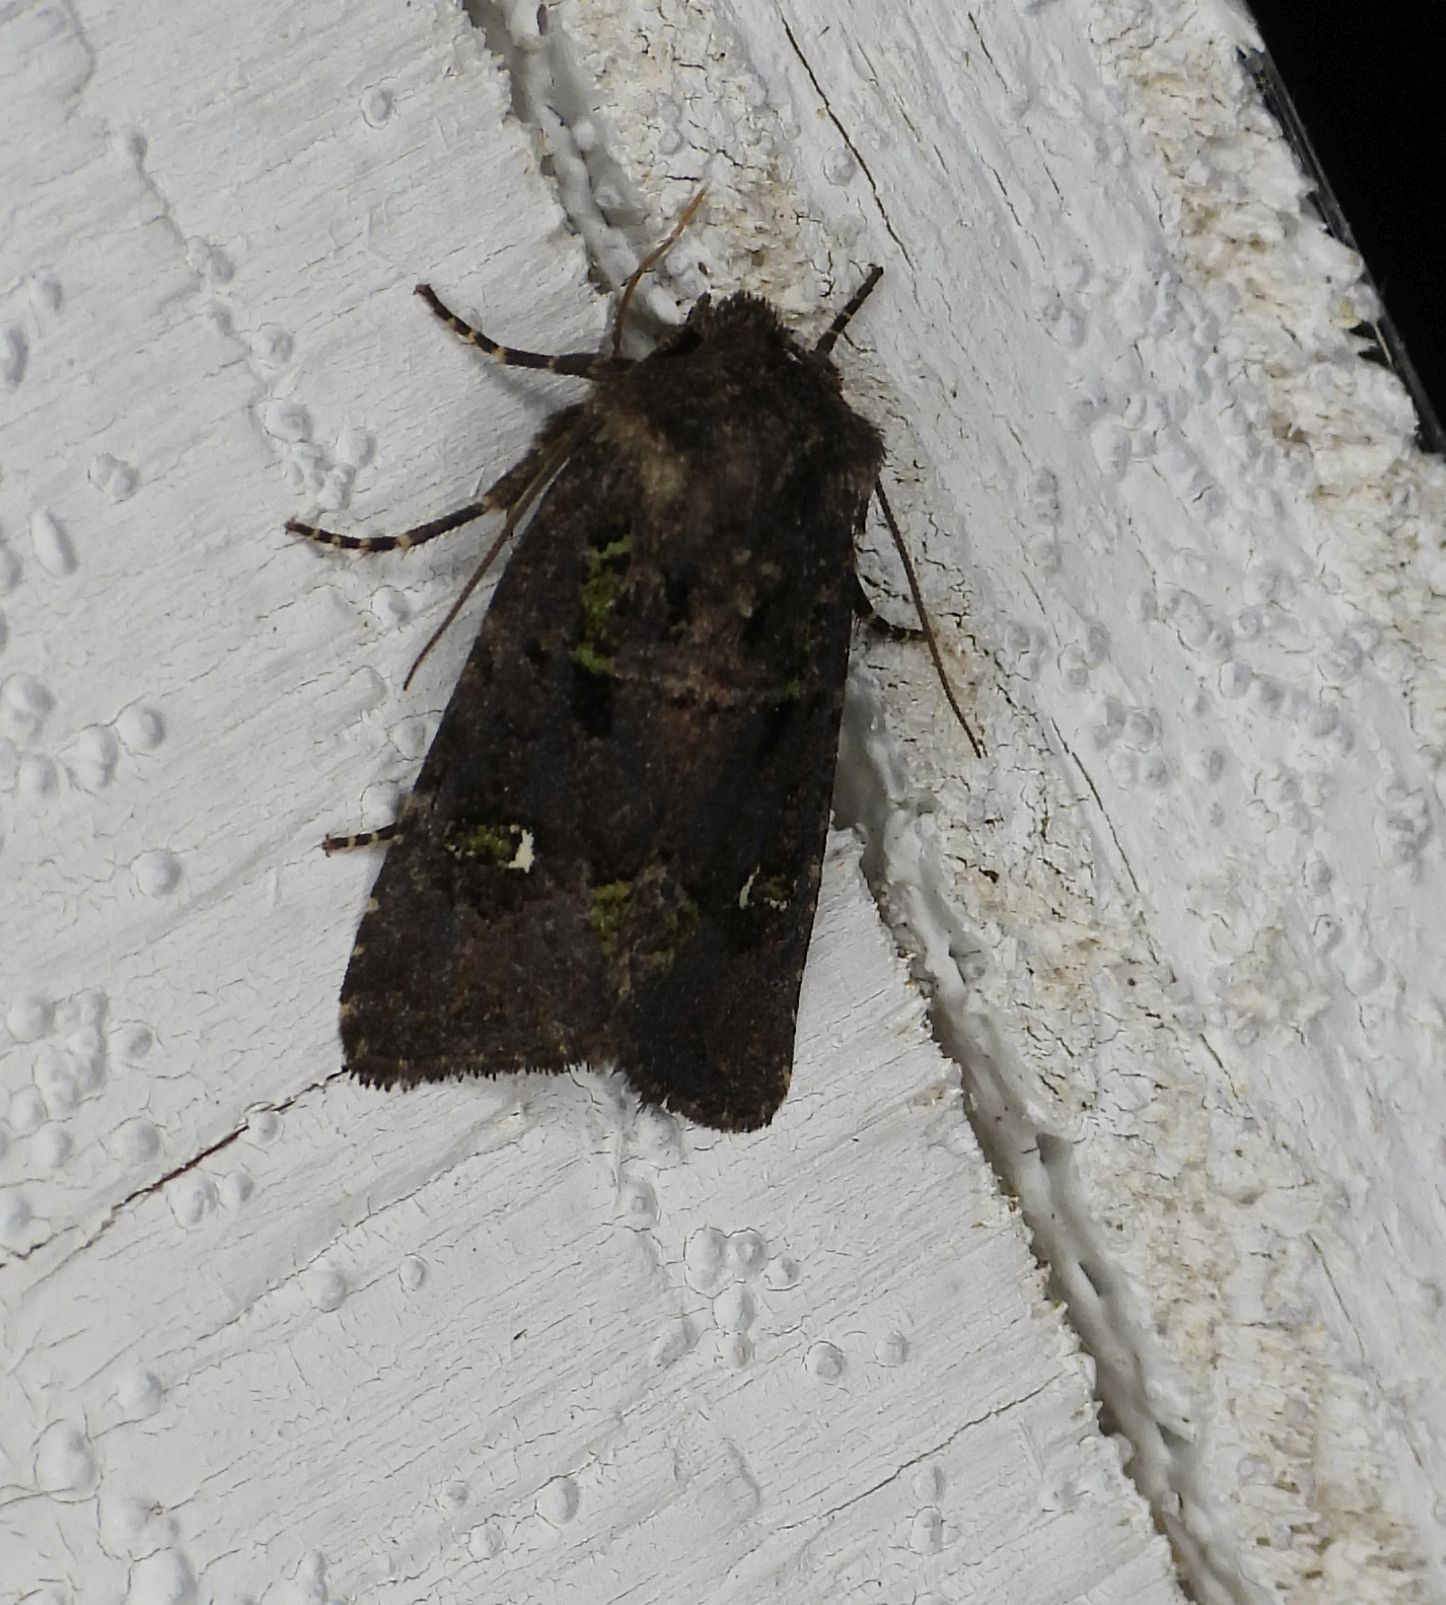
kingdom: Animalia
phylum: Arthropoda
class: Insecta
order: Lepidoptera
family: Noctuidae
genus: Lacinipolia
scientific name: Lacinipolia renigera
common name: Kidney-spotted minor
